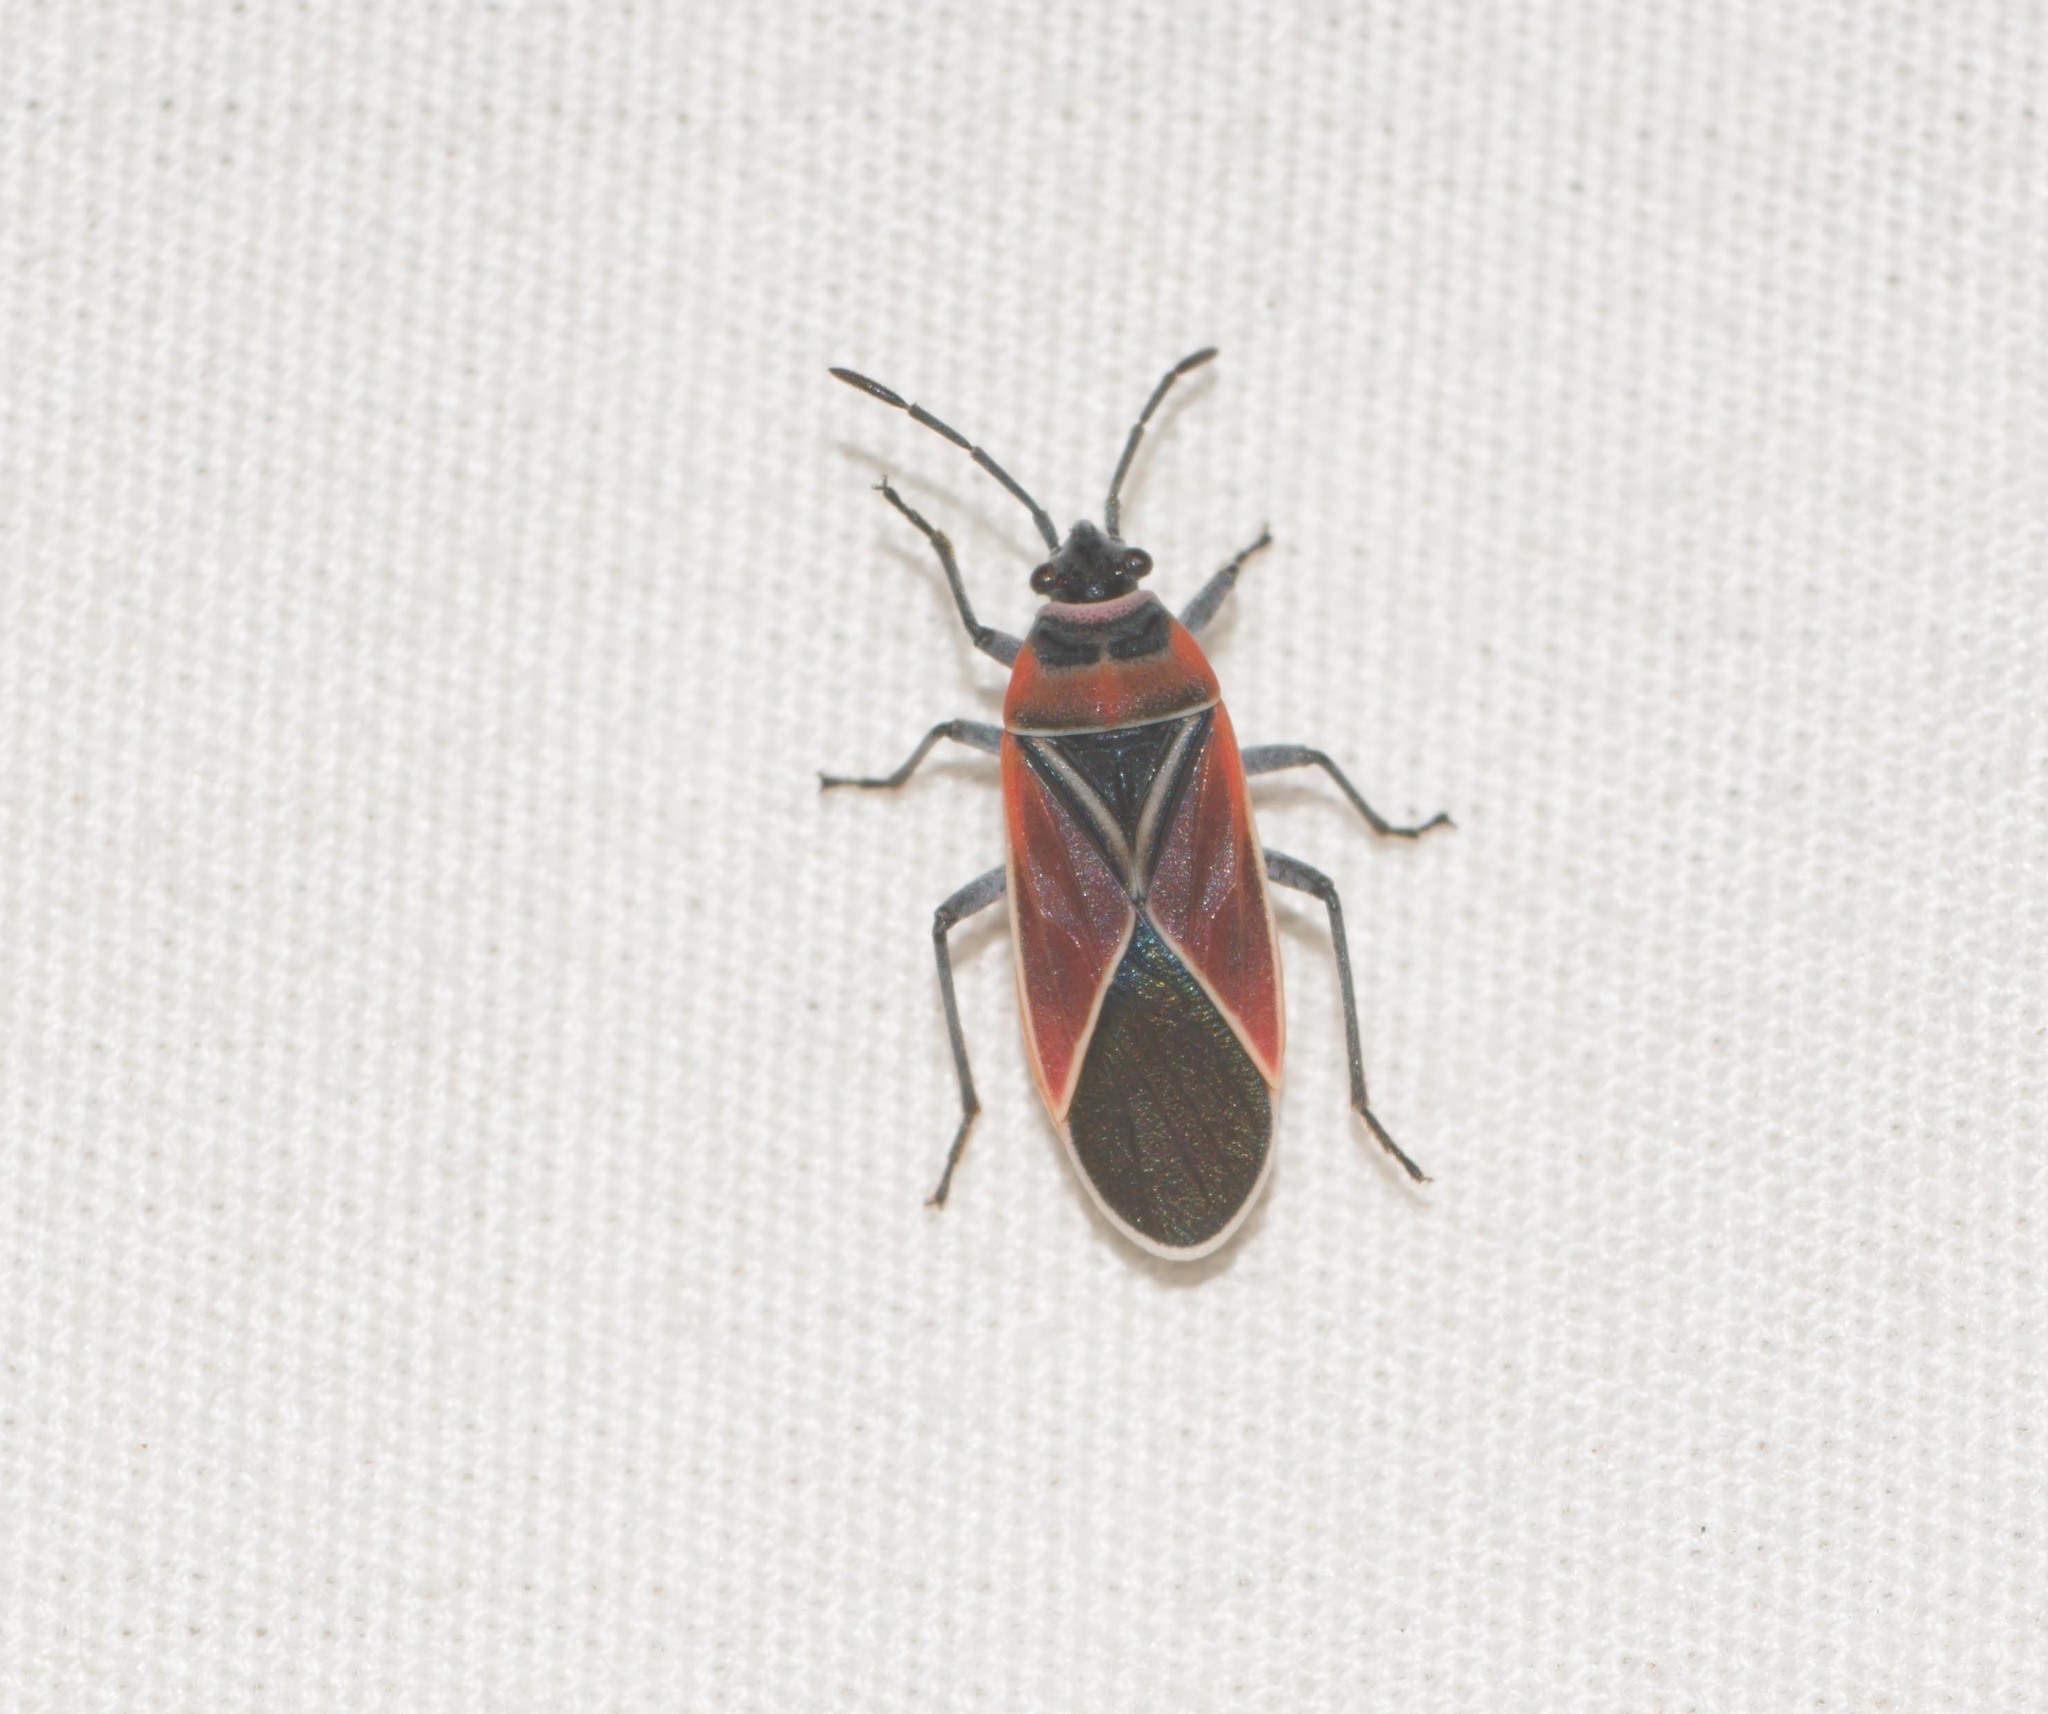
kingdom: Animalia
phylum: Arthropoda
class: Insecta
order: Hemiptera
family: Lygaeidae
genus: Neacoryphus
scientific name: Neacoryphus bicrucis
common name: Lygaeid bug
